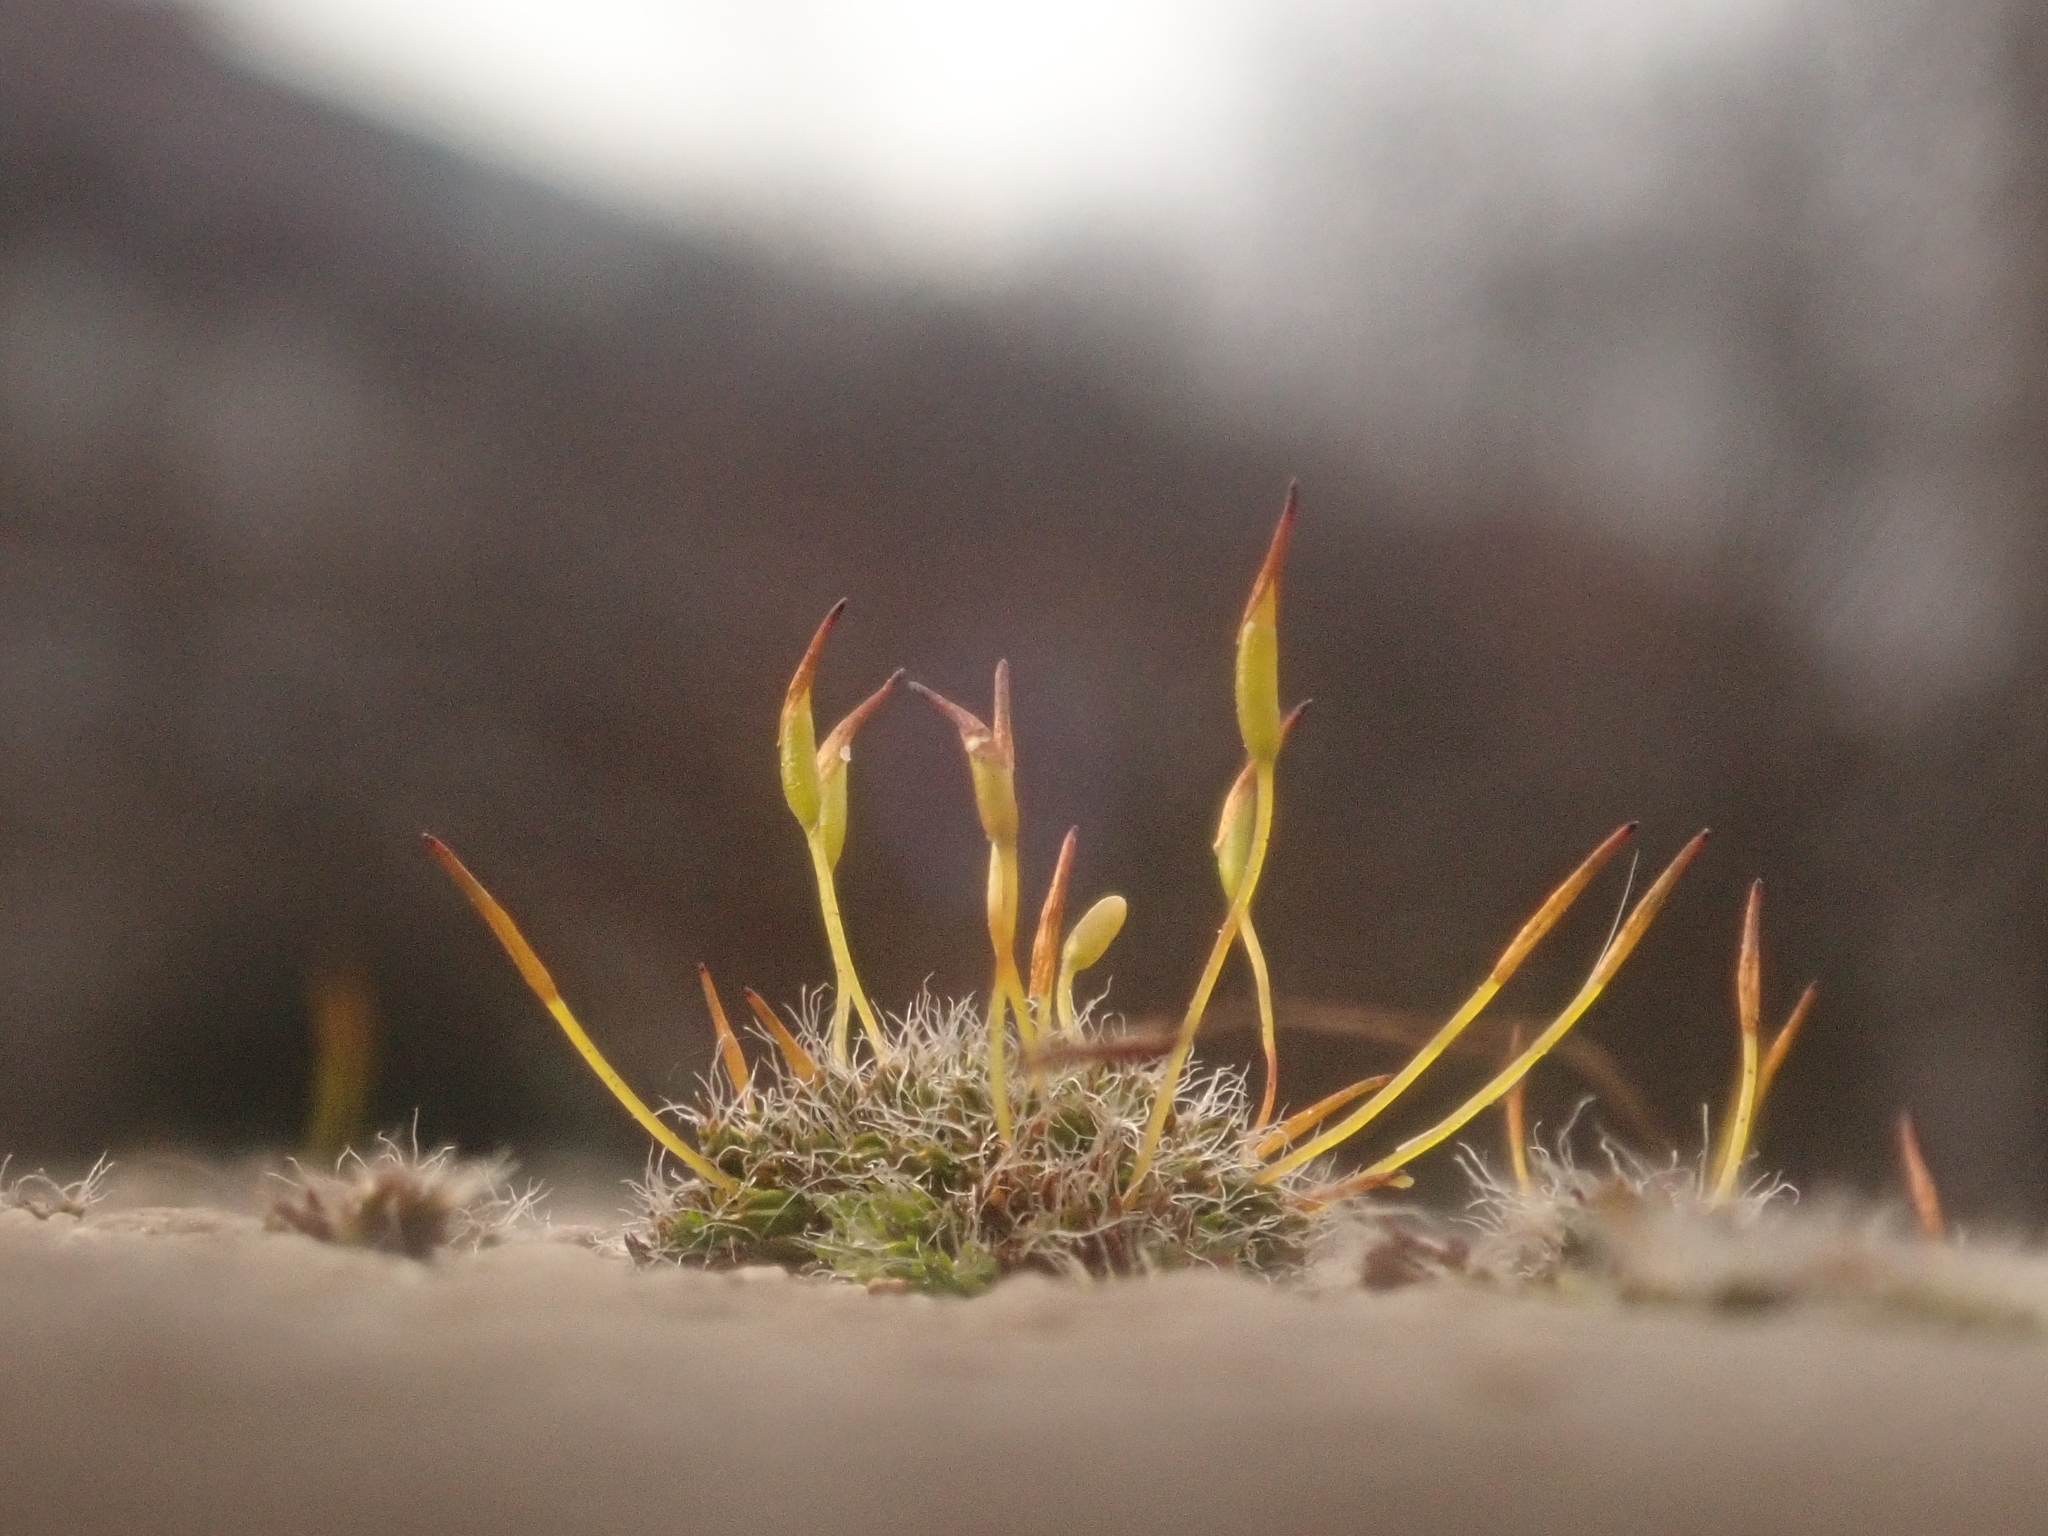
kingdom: Plantae
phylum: Bryophyta
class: Bryopsida
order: Pottiales
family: Pottiaceae
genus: Tortula
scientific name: Tortula muralis
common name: Wall screw-moss
